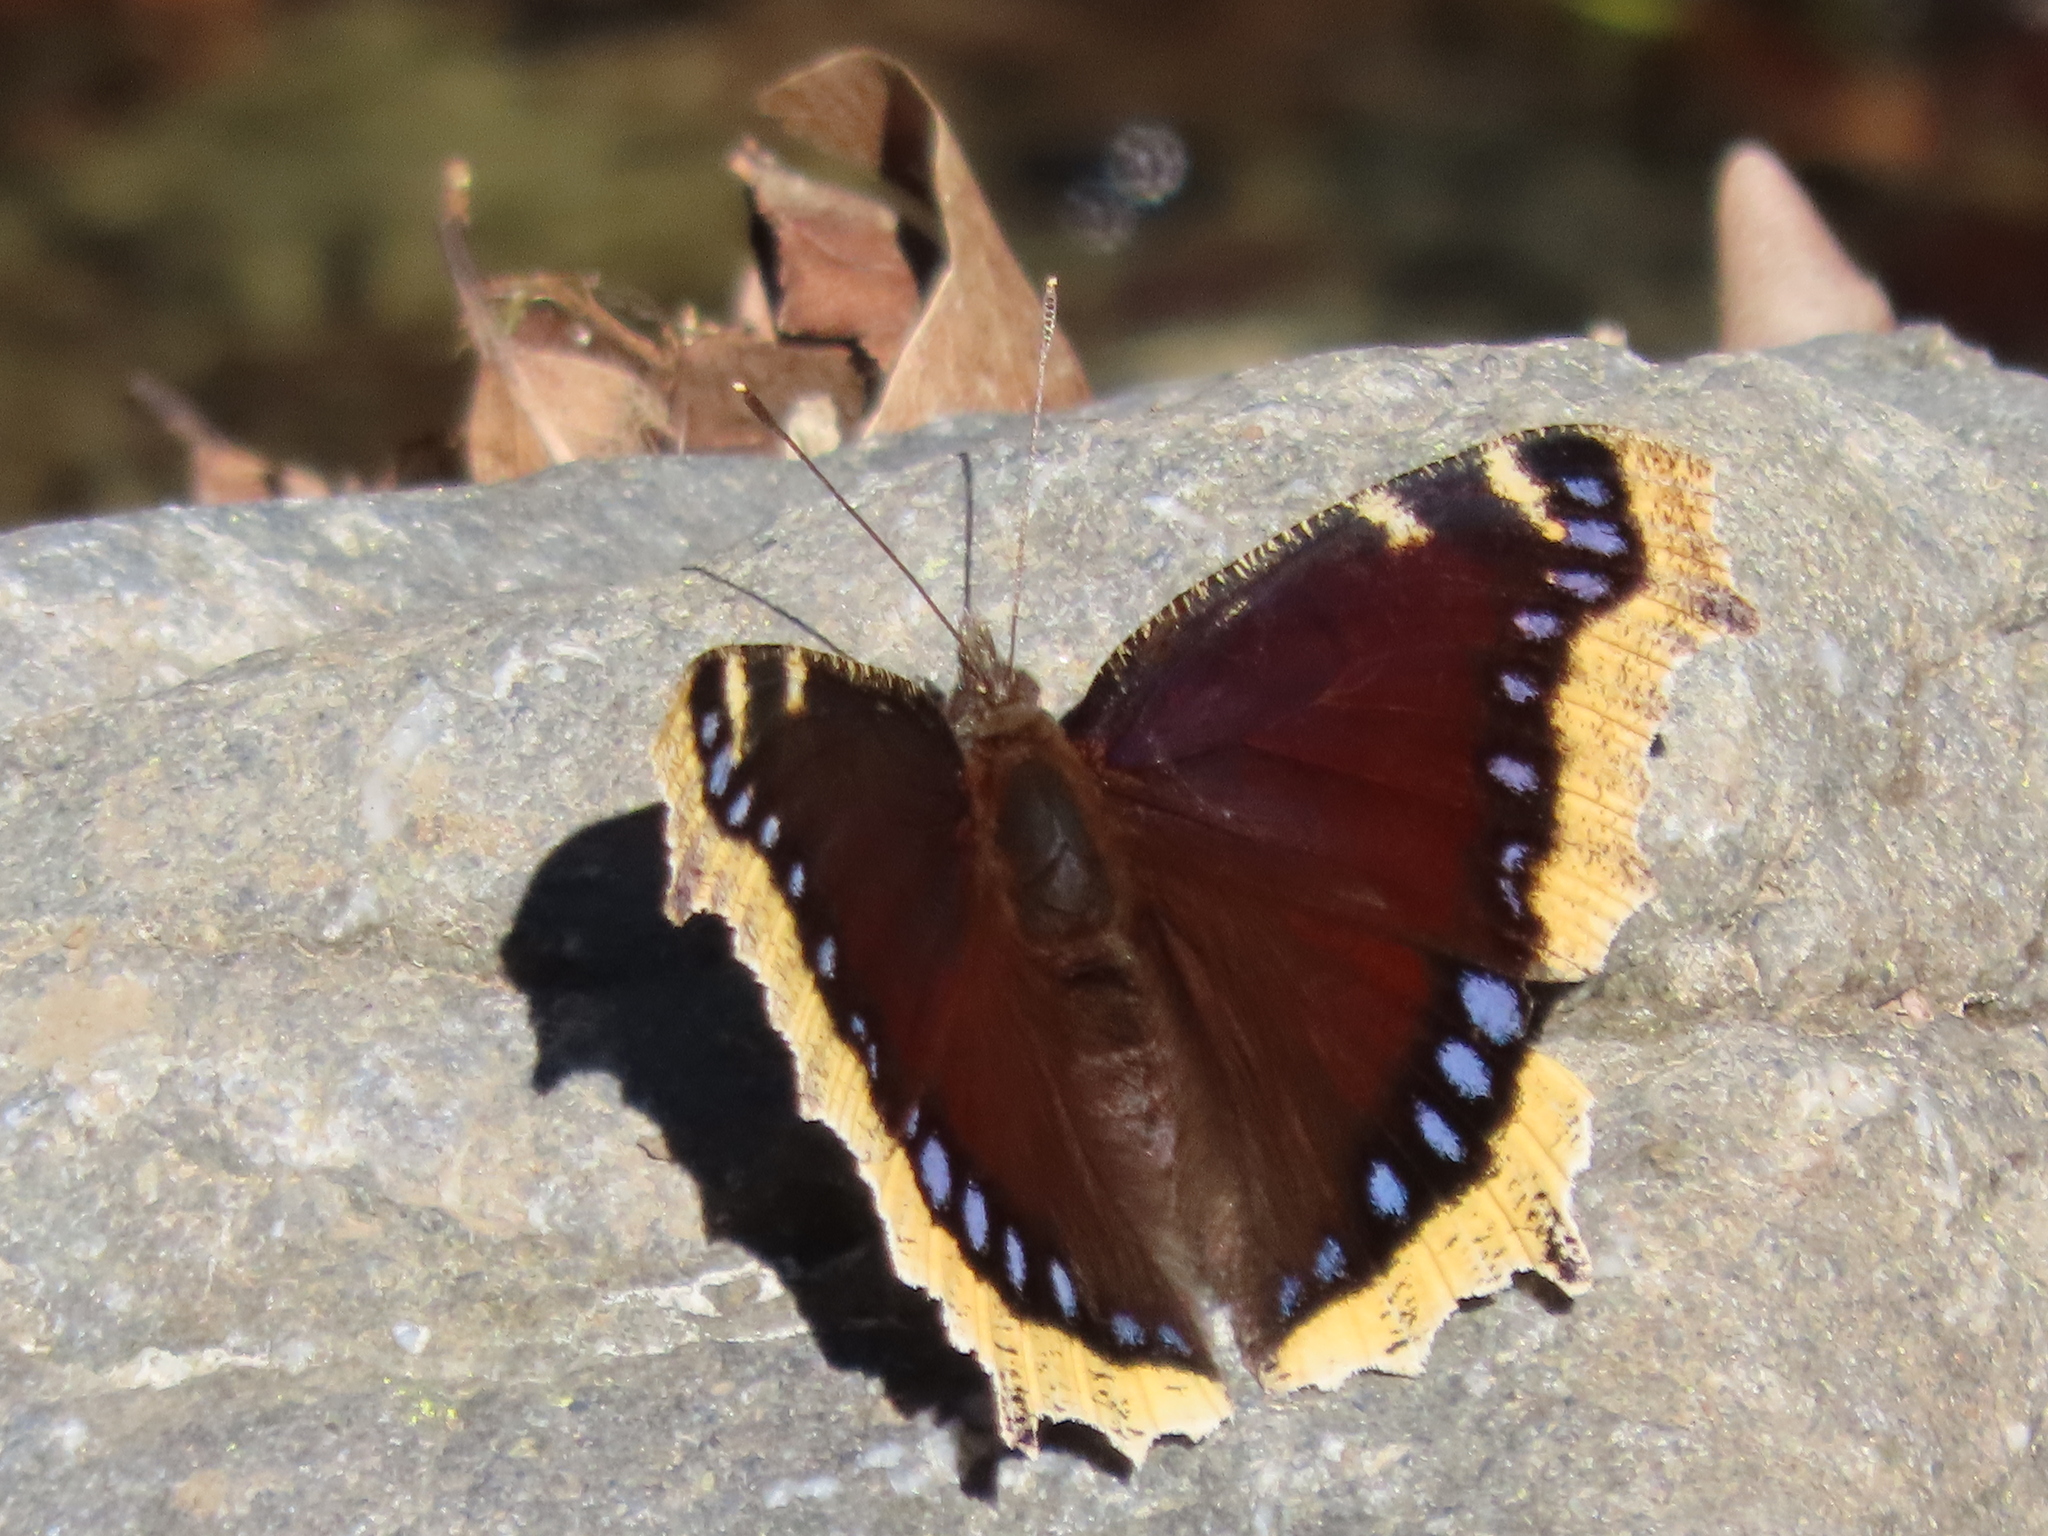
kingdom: Animalia
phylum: Arthropoda
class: Insecta
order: Lepidoptera
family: Nymphalidae
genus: Nymphalis
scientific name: Nymphalis antiopa
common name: Camberwell beauty
